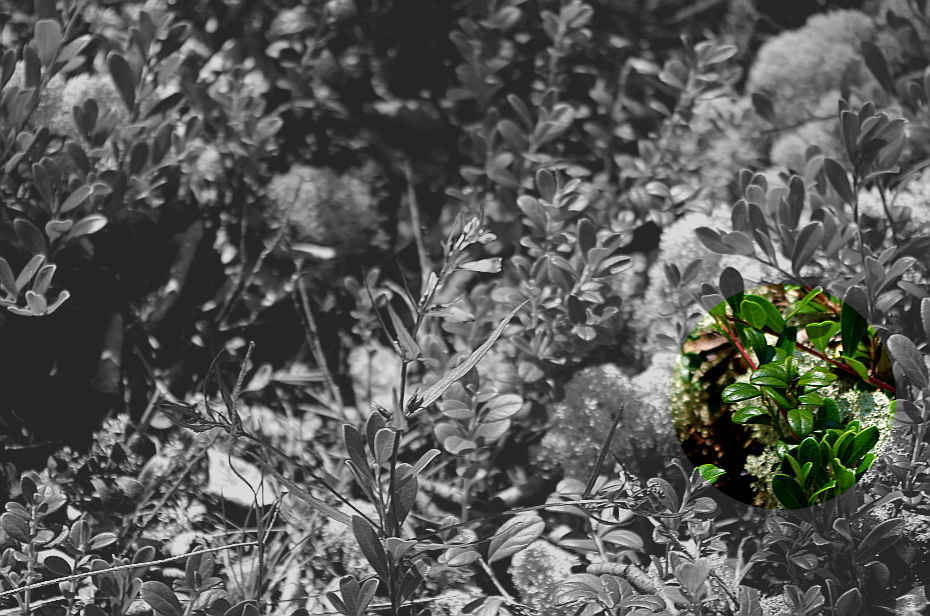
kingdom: Plantae
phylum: Tracheophyta
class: Magnoliopsida
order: Ericales
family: Ericaceae
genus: Vaccinium
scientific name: Vaccinium vitis-idaea
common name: Cowberry
